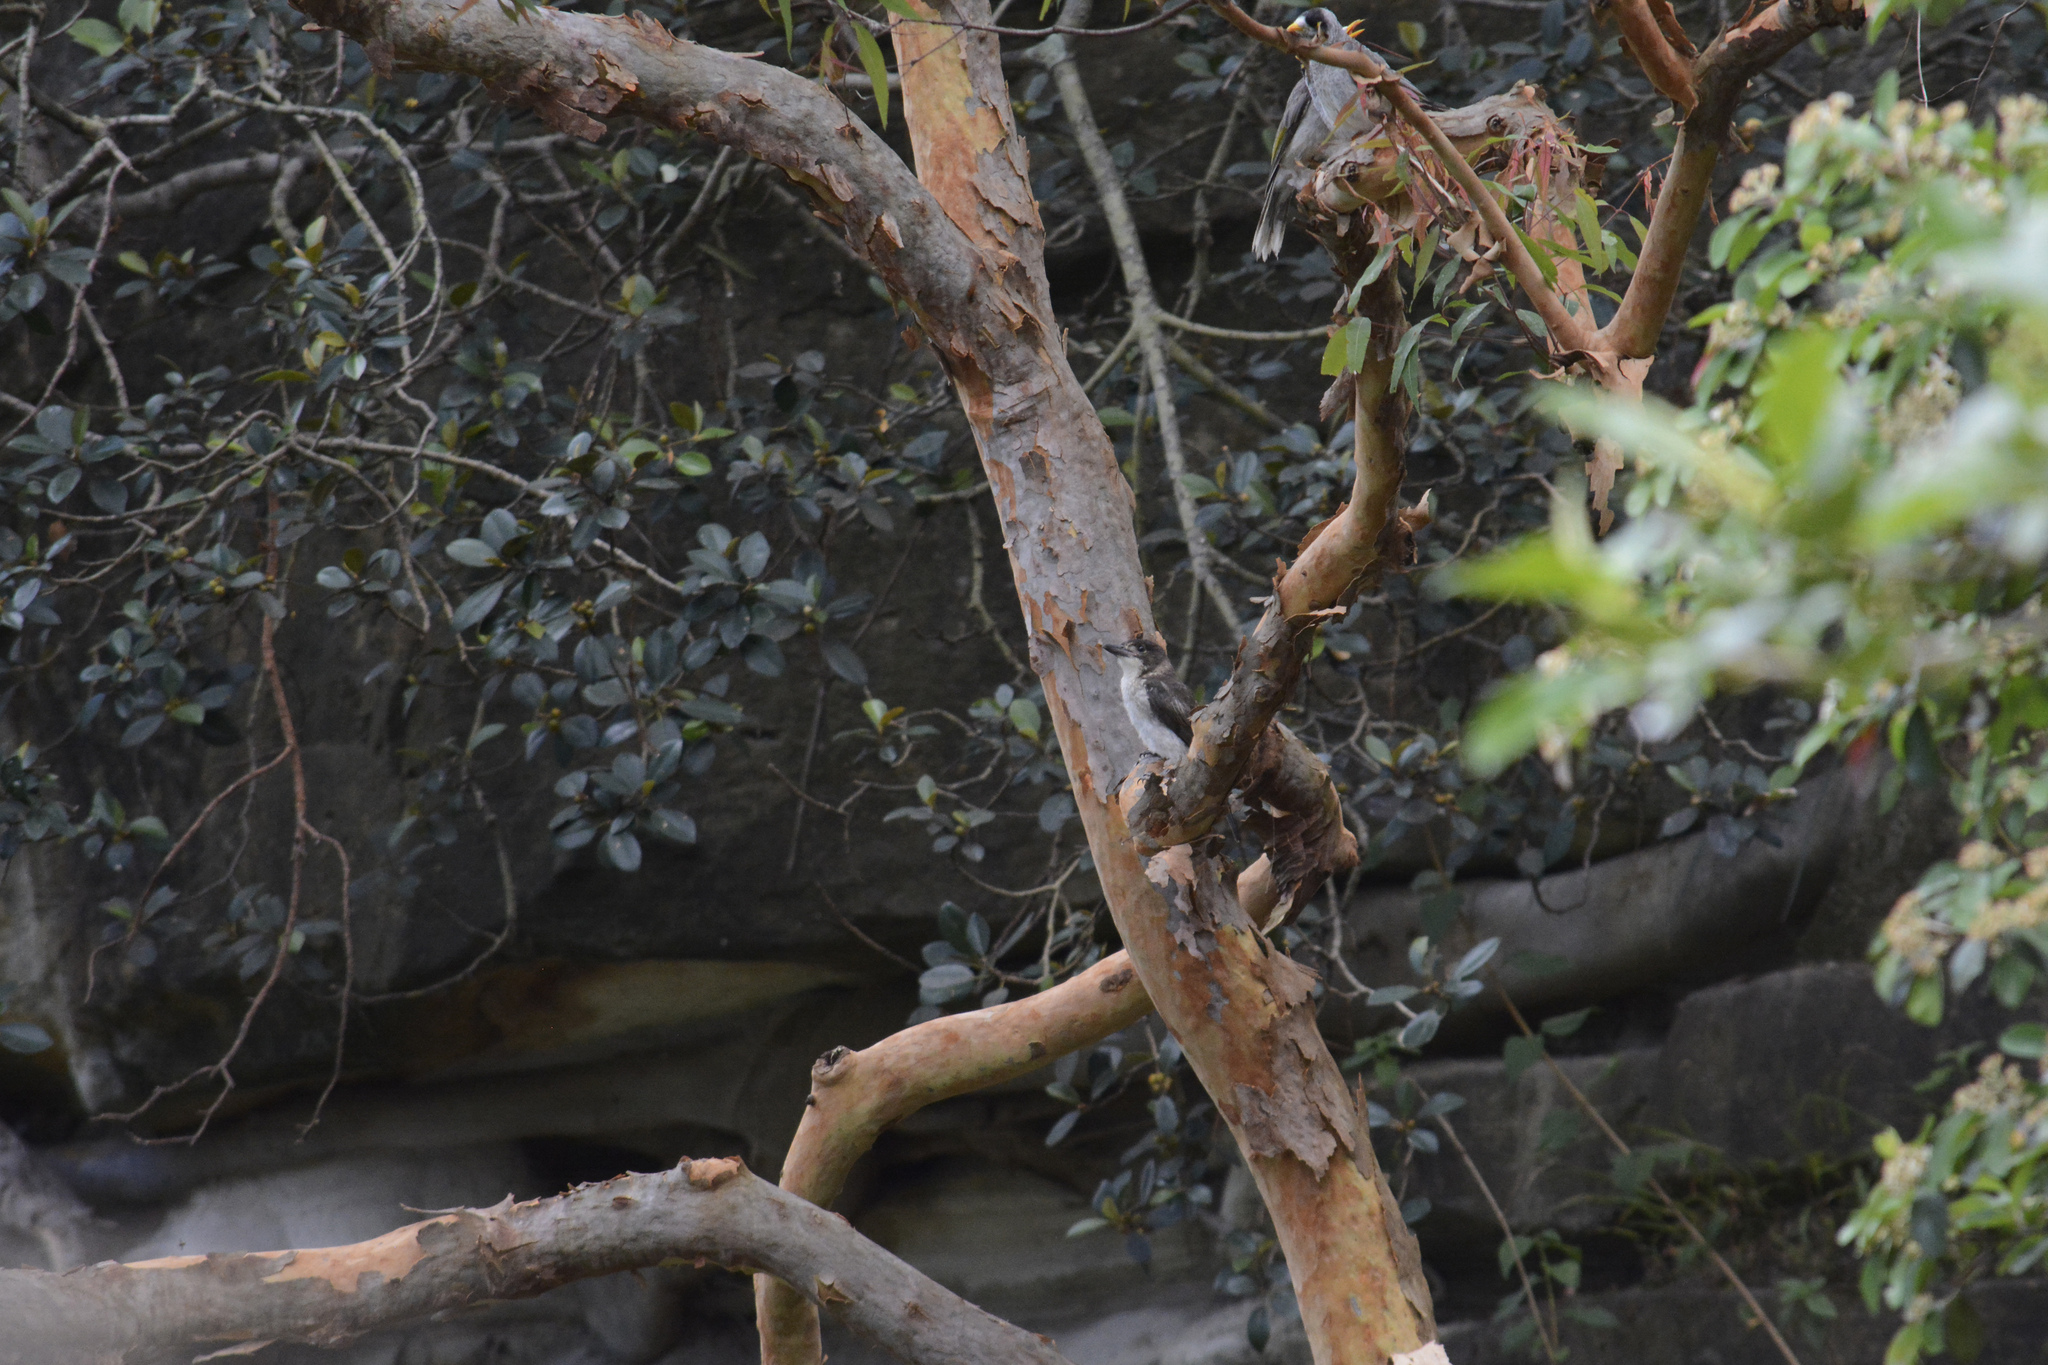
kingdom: Plantae
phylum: Tracheophyta
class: Magnoliopsida
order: Myrtales
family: Myrtaceae
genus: Angophora
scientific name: Angophora costata
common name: Gum myrtle
